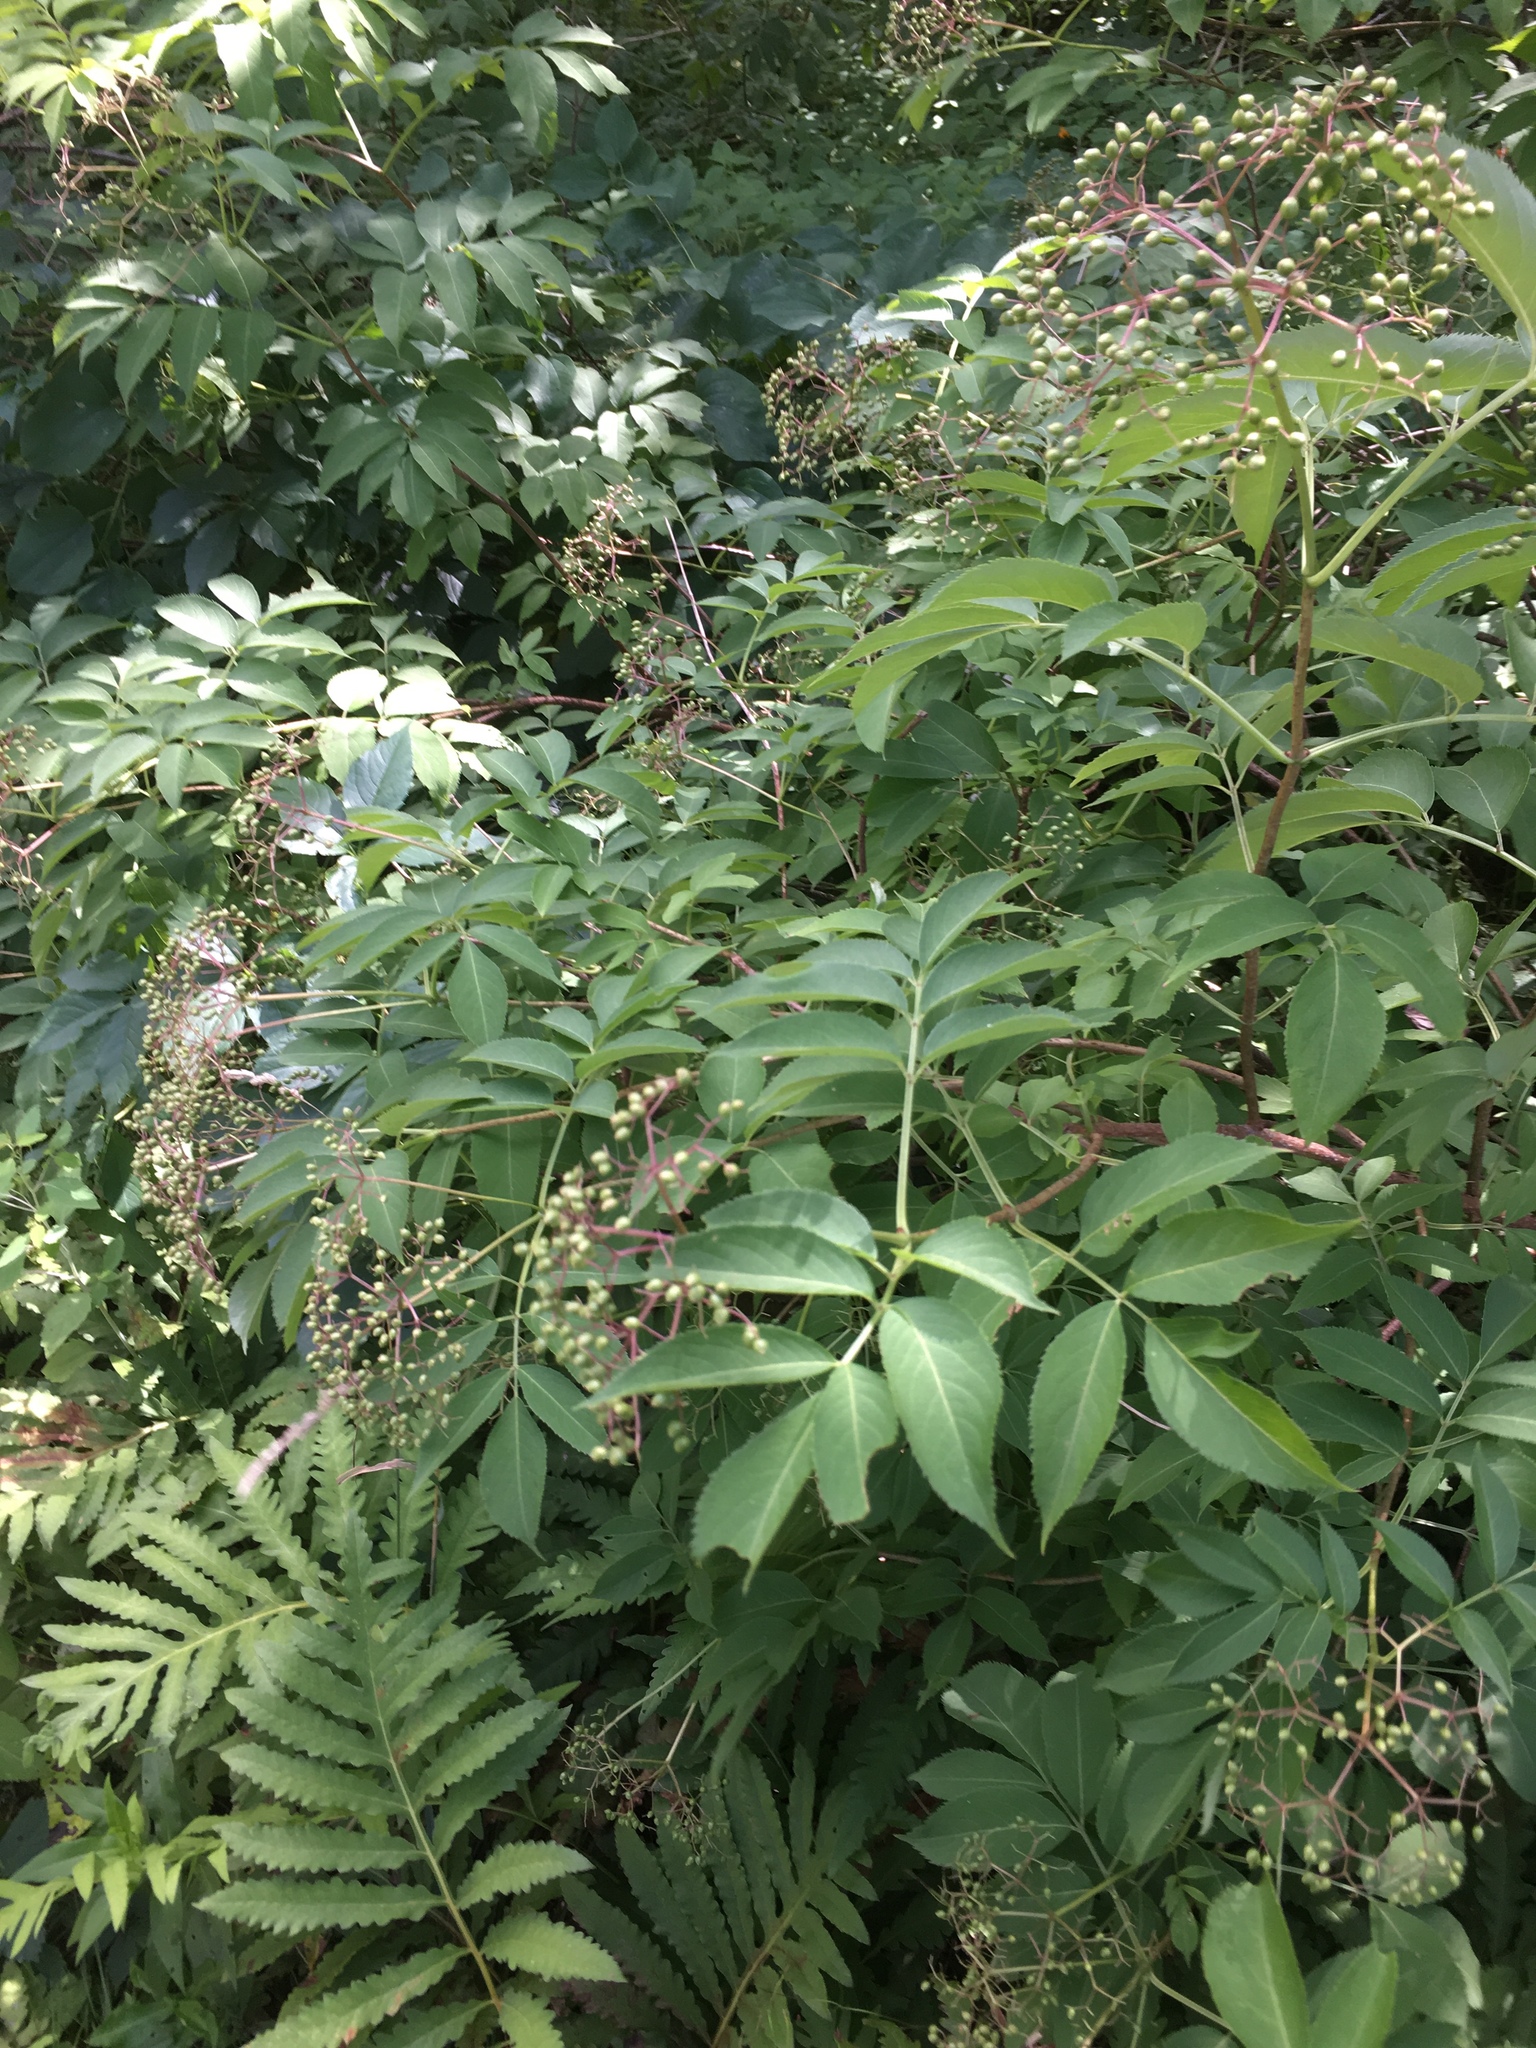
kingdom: Plantae
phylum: Tracheophyta
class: Magnoliopsida
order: Dipsacales
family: Viburnaceae
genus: Sambucus
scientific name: Sambucus canadensis
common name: American elder
